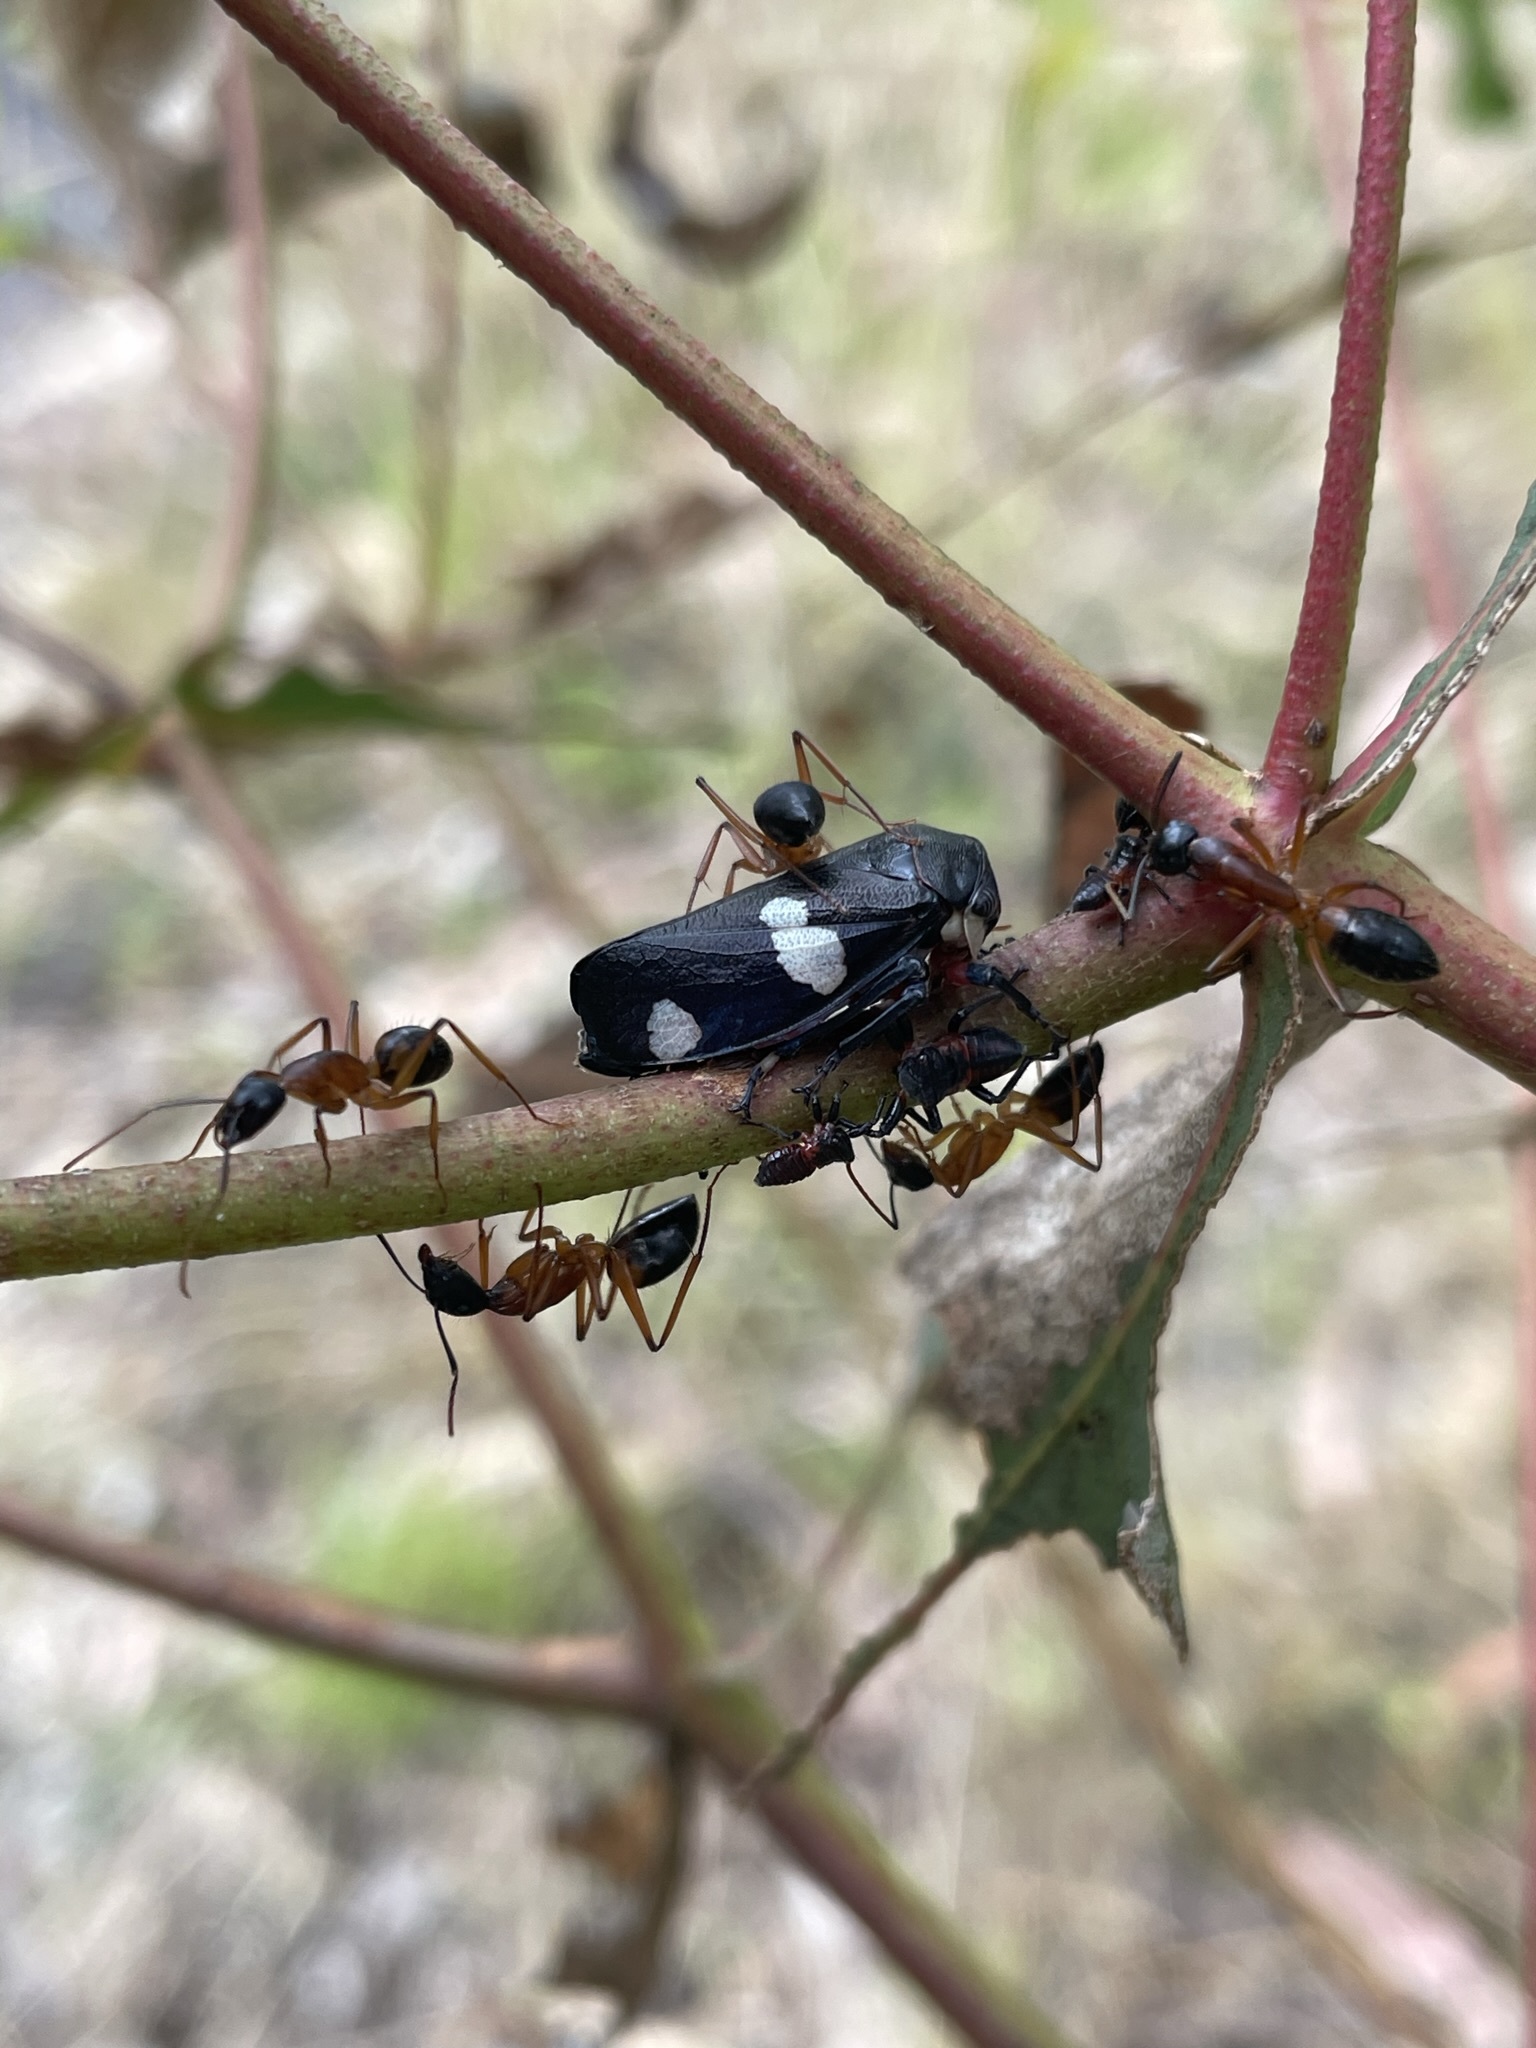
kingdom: Animalia
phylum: Arthropoda
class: Insecta
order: Hymenoptera
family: Formicidae
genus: Camponotus
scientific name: Camponotus consobrinus
